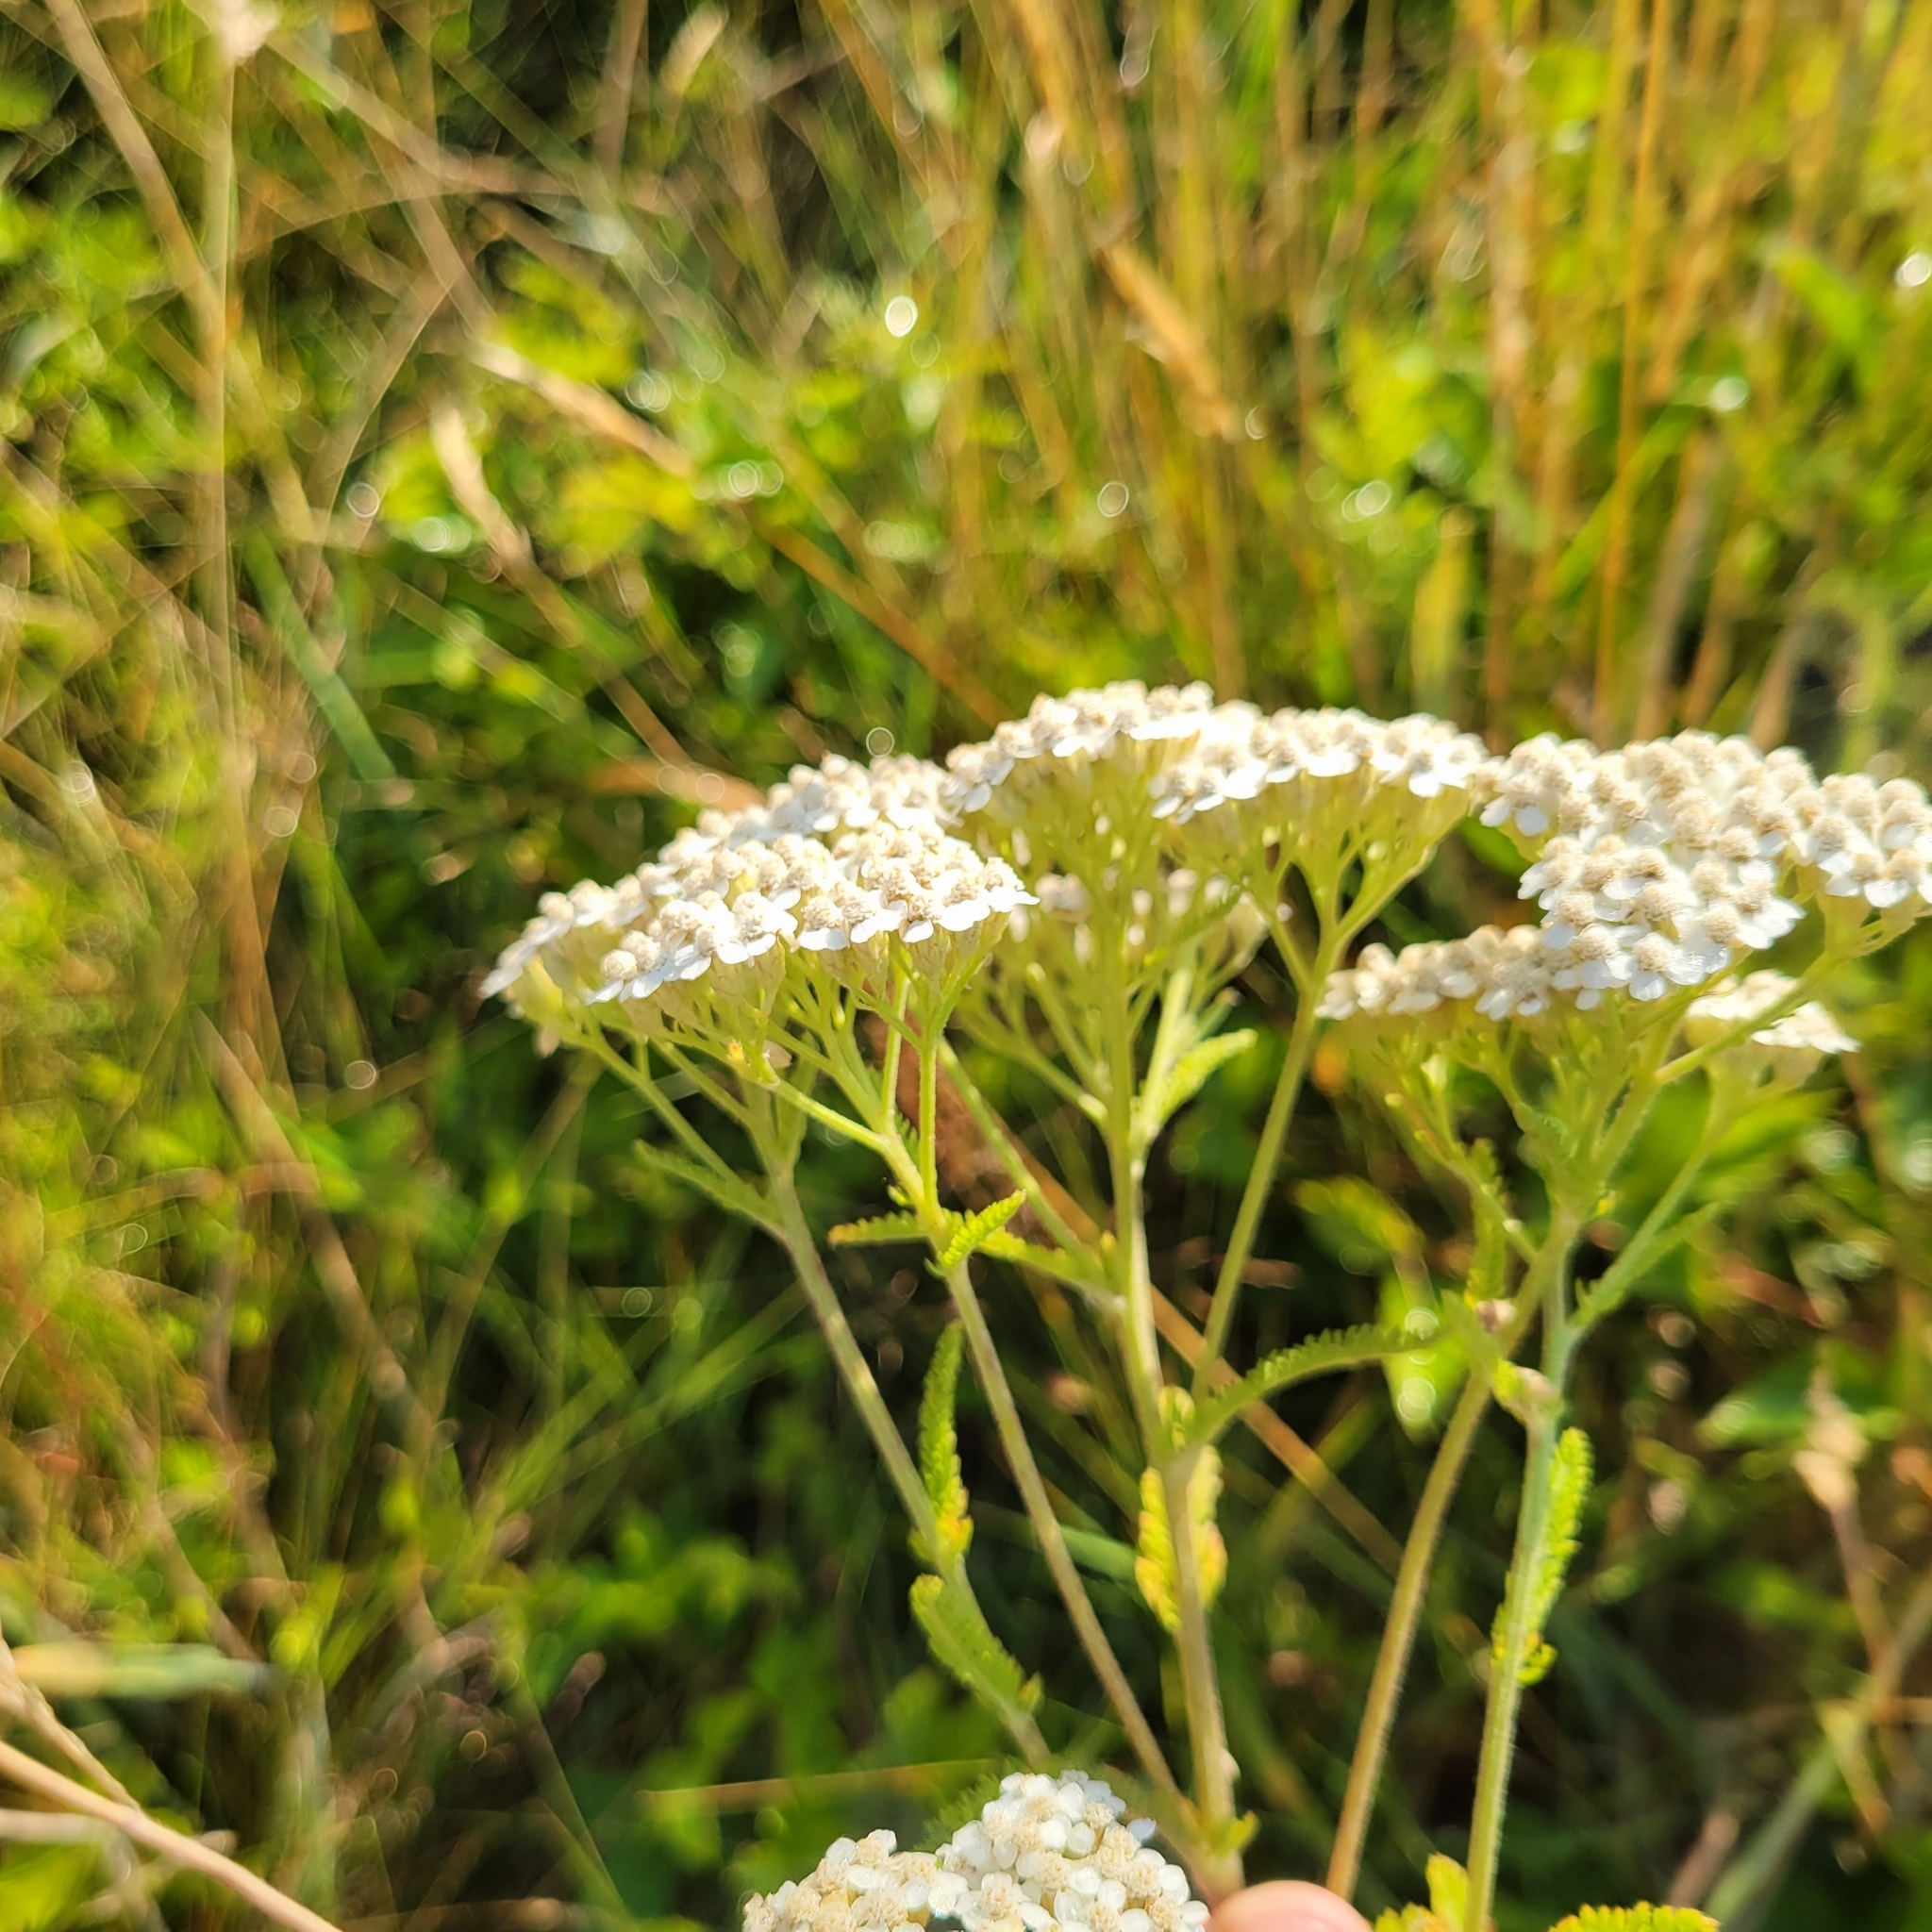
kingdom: Plantae
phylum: Tracheophyta
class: Magnoliopsida
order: Asterales
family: Asteraceae
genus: Achillea
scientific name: Achillea millefolium
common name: Yarrow
